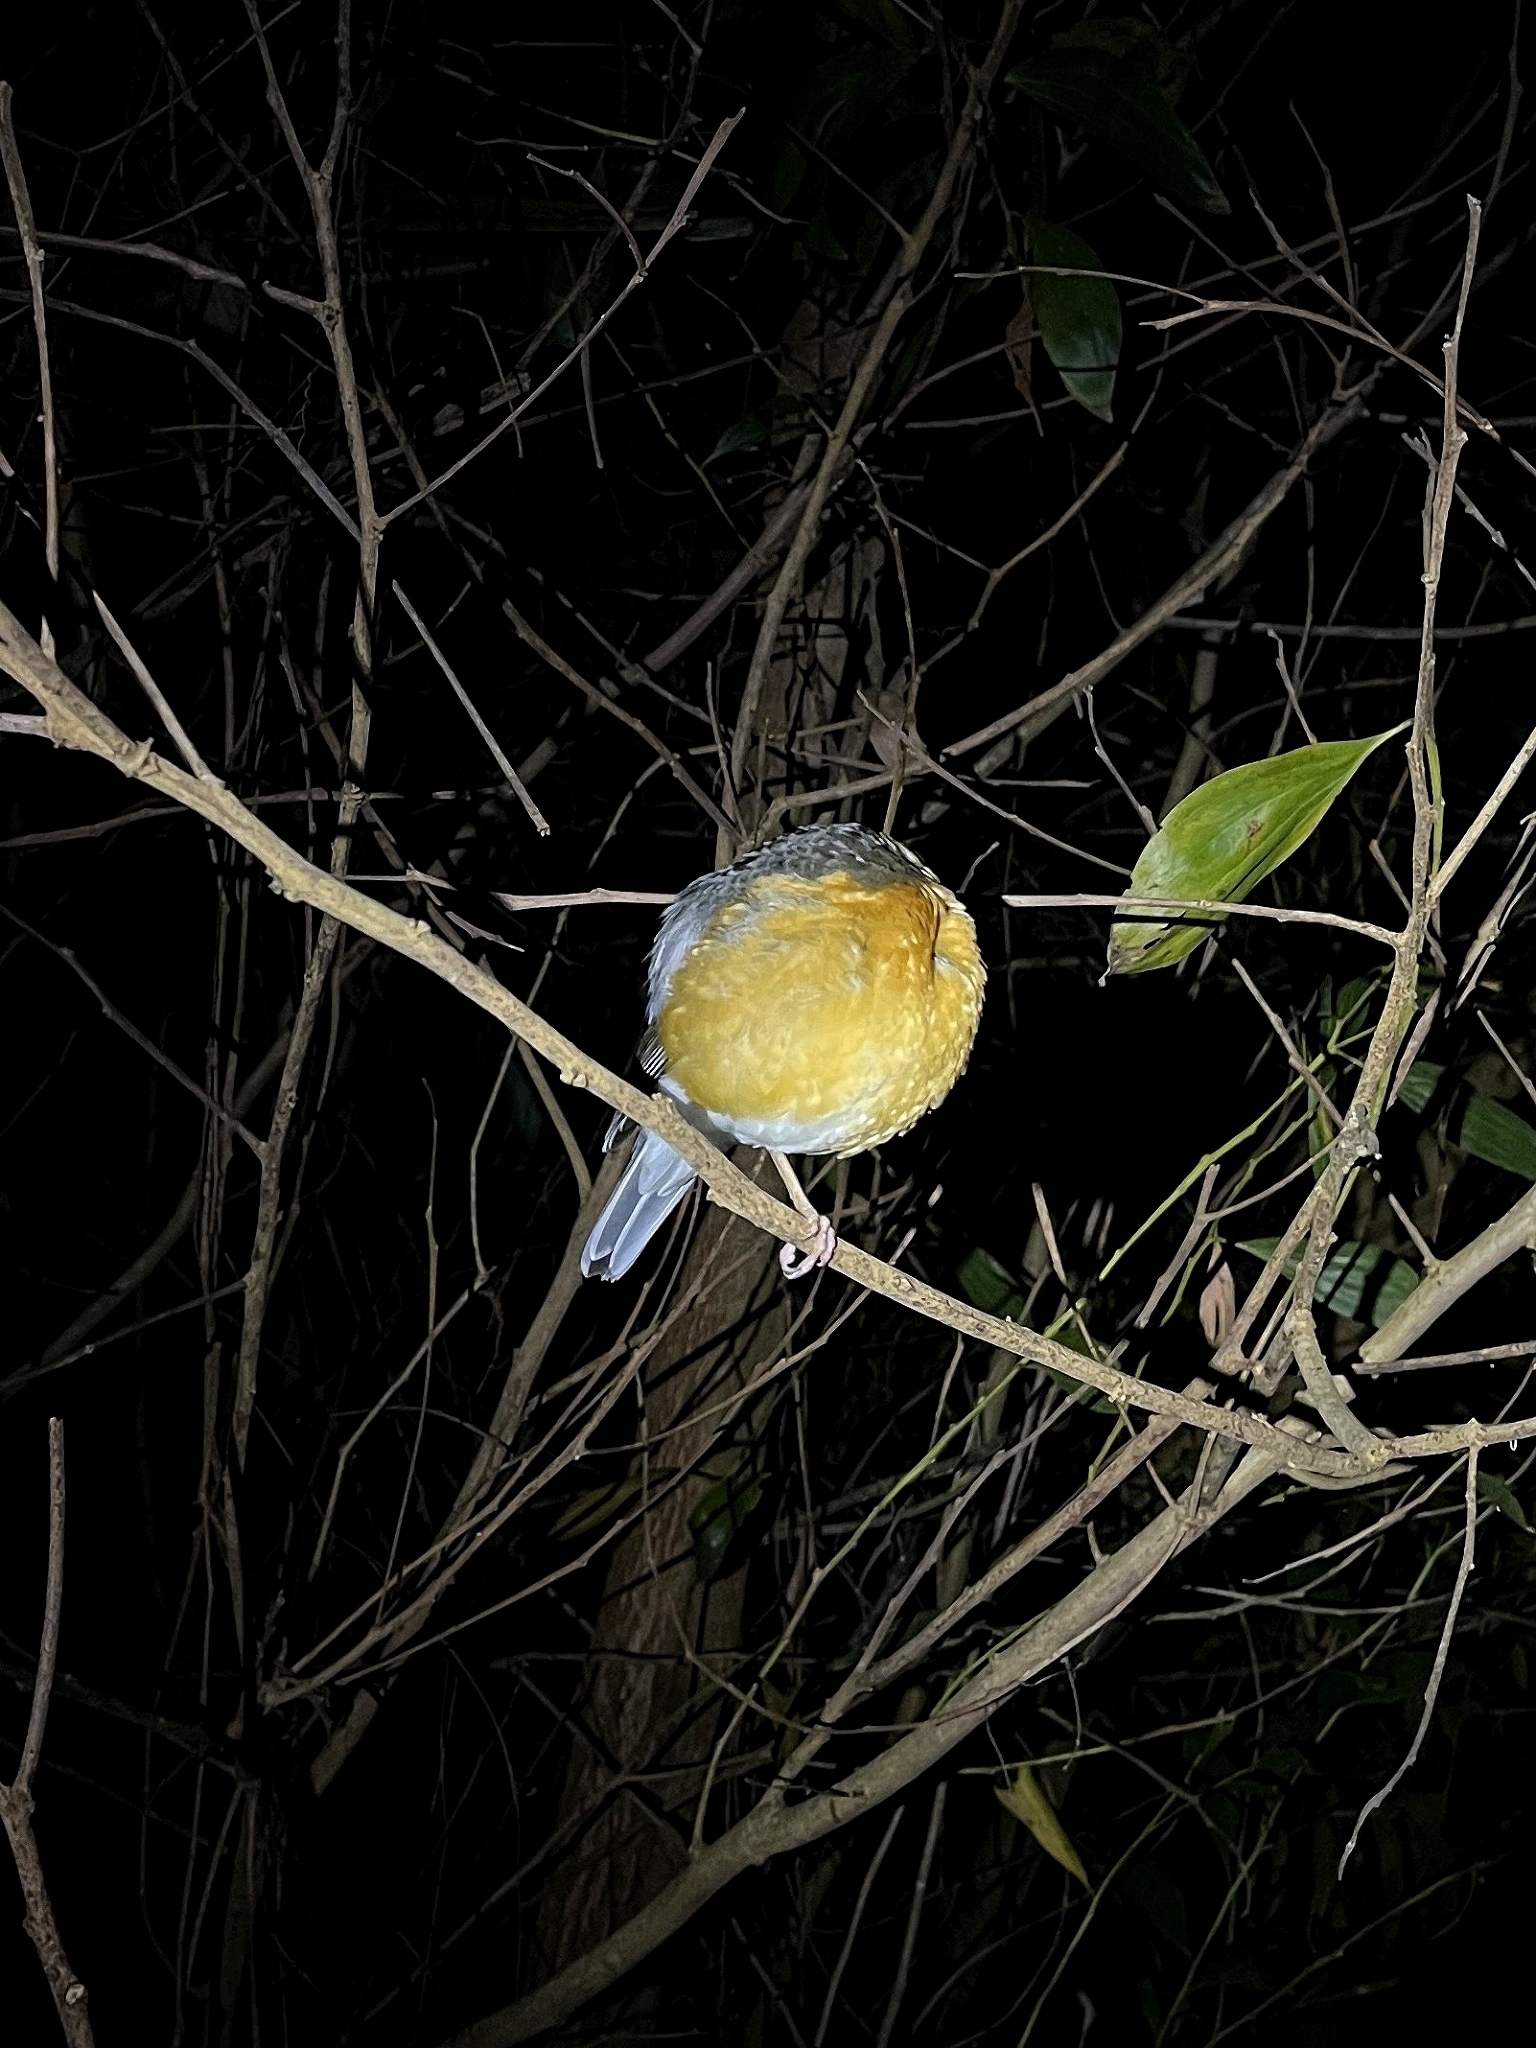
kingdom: Animalia
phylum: Chordata
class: Aves
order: Passeriformes
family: Turdidae
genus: Geokichla
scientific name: Geokichla citrina
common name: Orange-headed thrush
